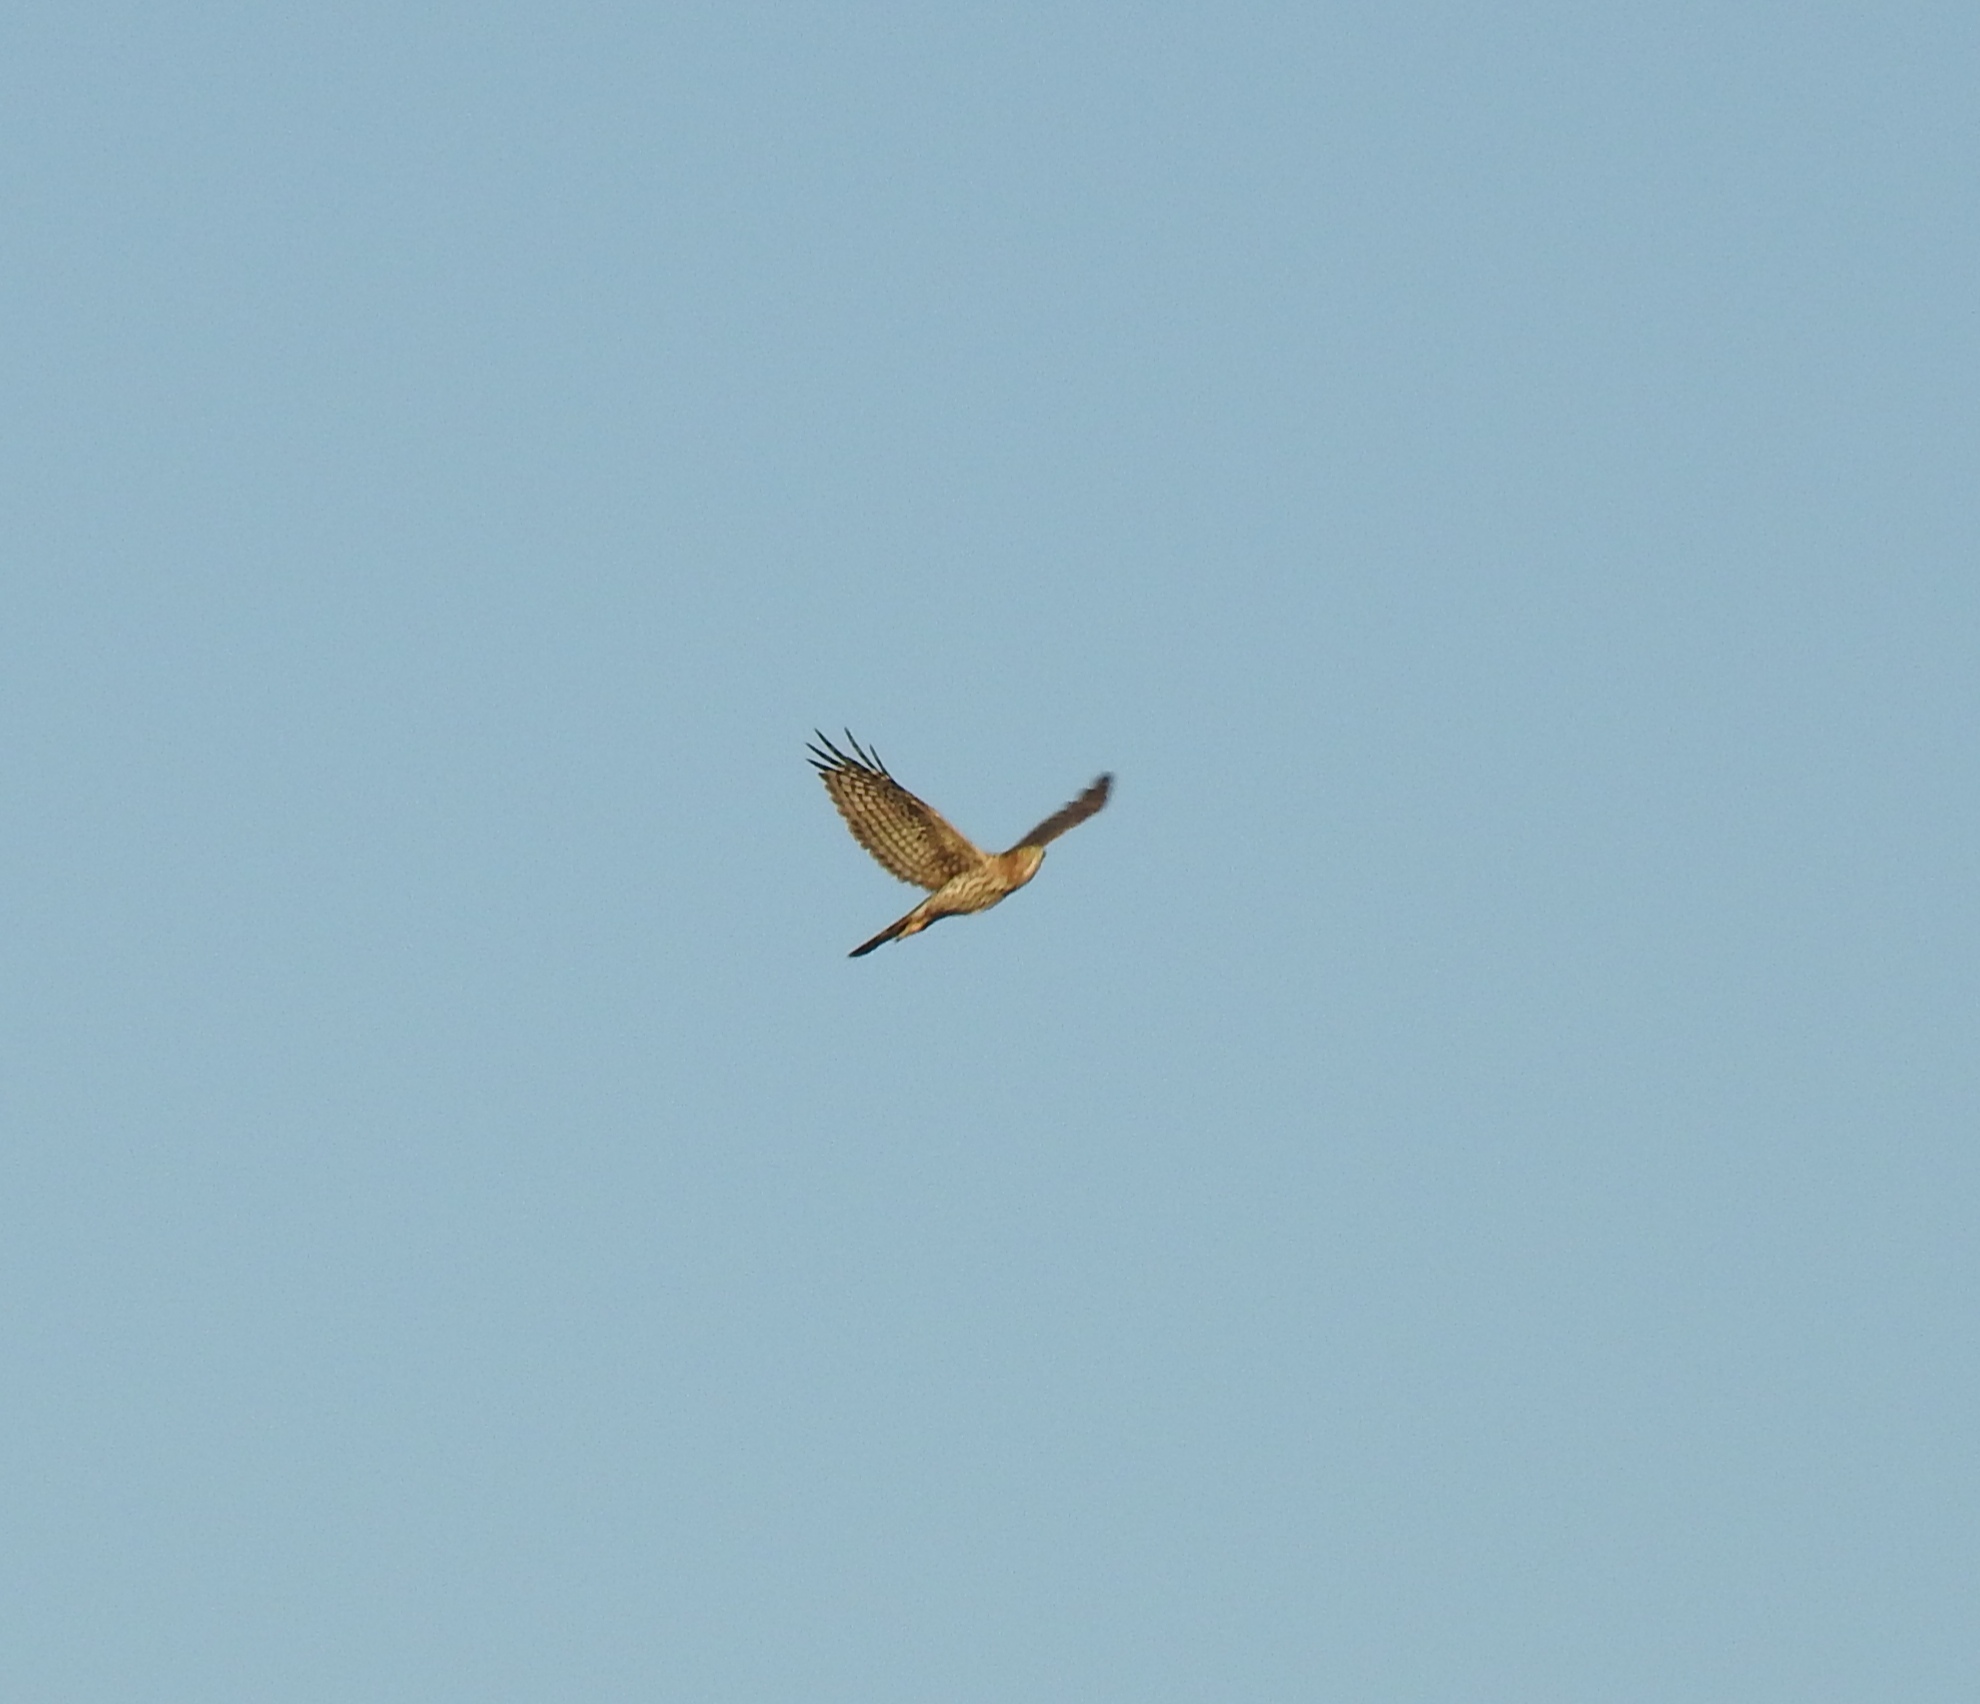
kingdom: Animalia
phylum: Chordata
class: Aves
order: Accipitriformes
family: Accipitridae
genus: Accipiter
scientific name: Accipiter cooperii
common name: Cooper's hawk
